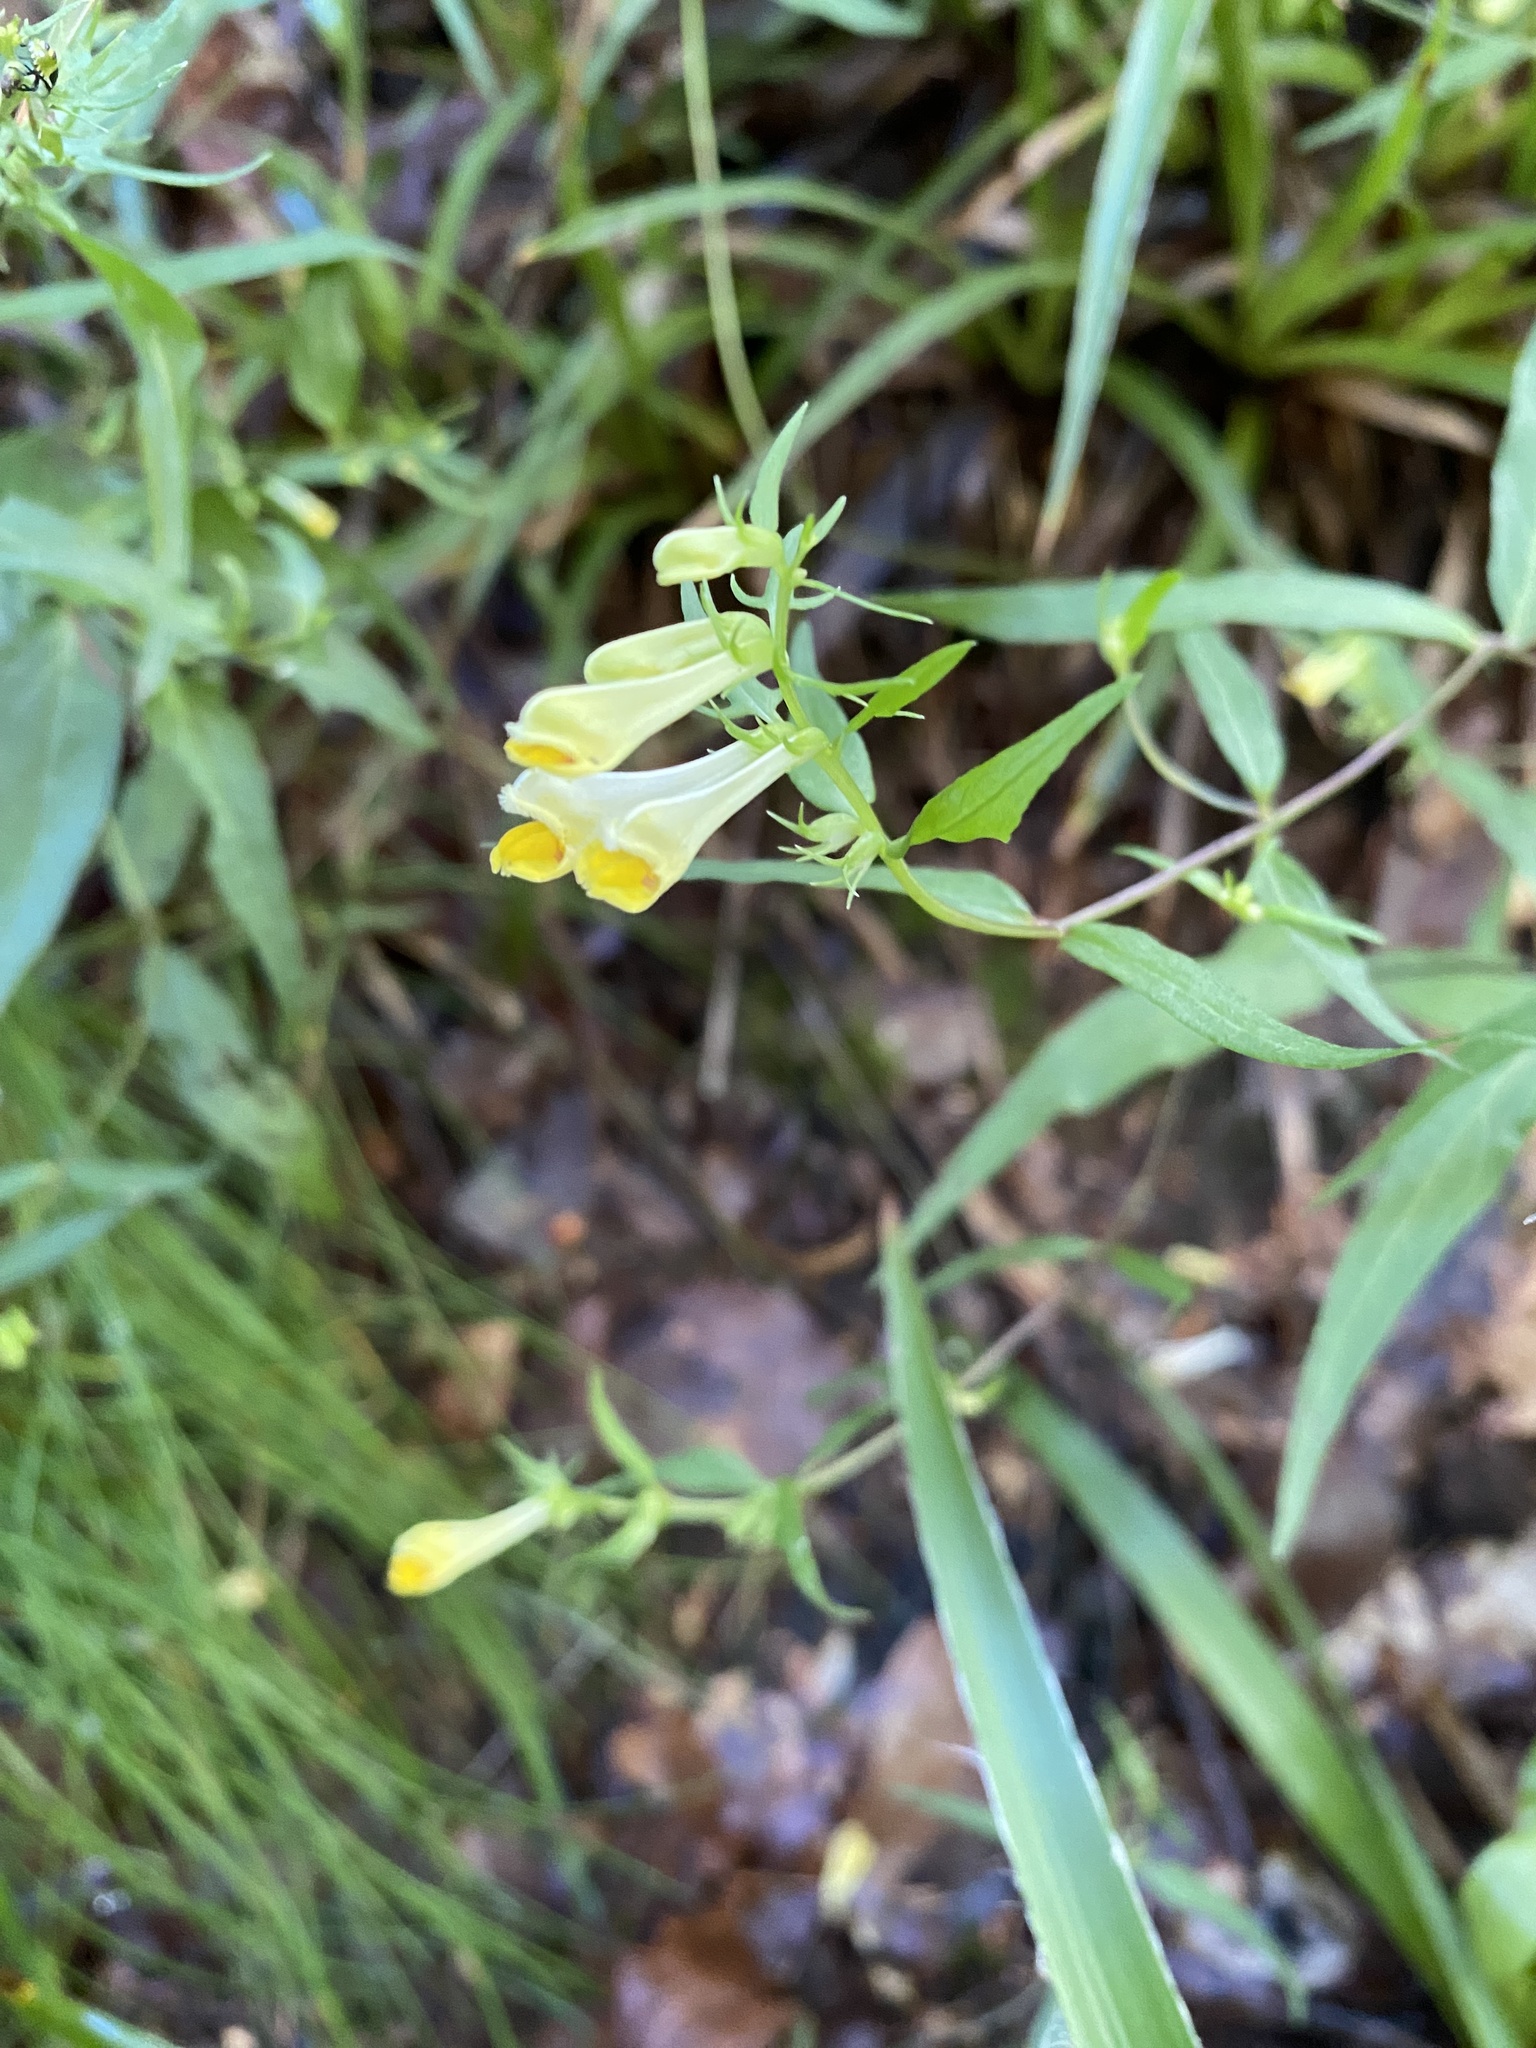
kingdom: Plantae
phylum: Tracheophyta
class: Magnoliopsida
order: Lamiales
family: Orobanchaceae
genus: Melampyrum
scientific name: Melampyrum pratense
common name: Common cow-wheat
